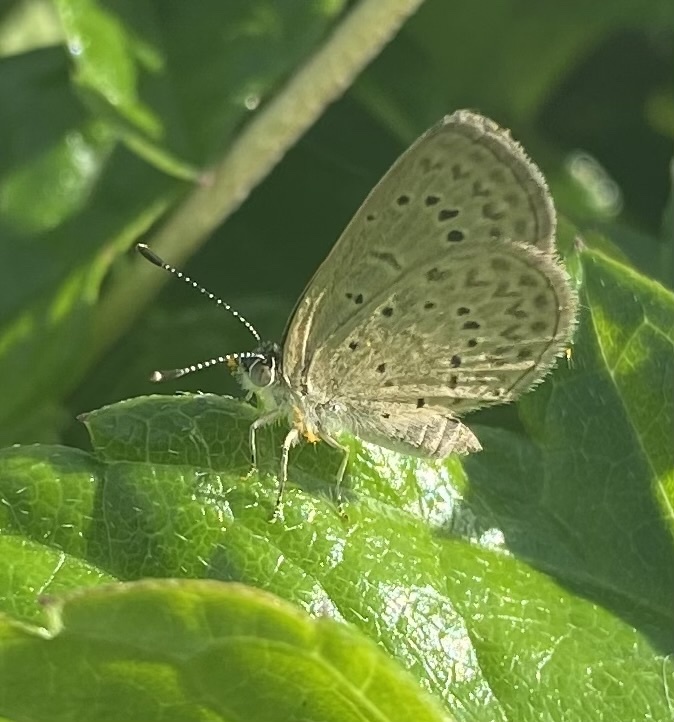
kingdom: Animalia
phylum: Arthropoda
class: Insecta
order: Lepidoptera
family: Lycaenidae
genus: Zizeeria
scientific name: Zizeeria knysna
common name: African grass blue
